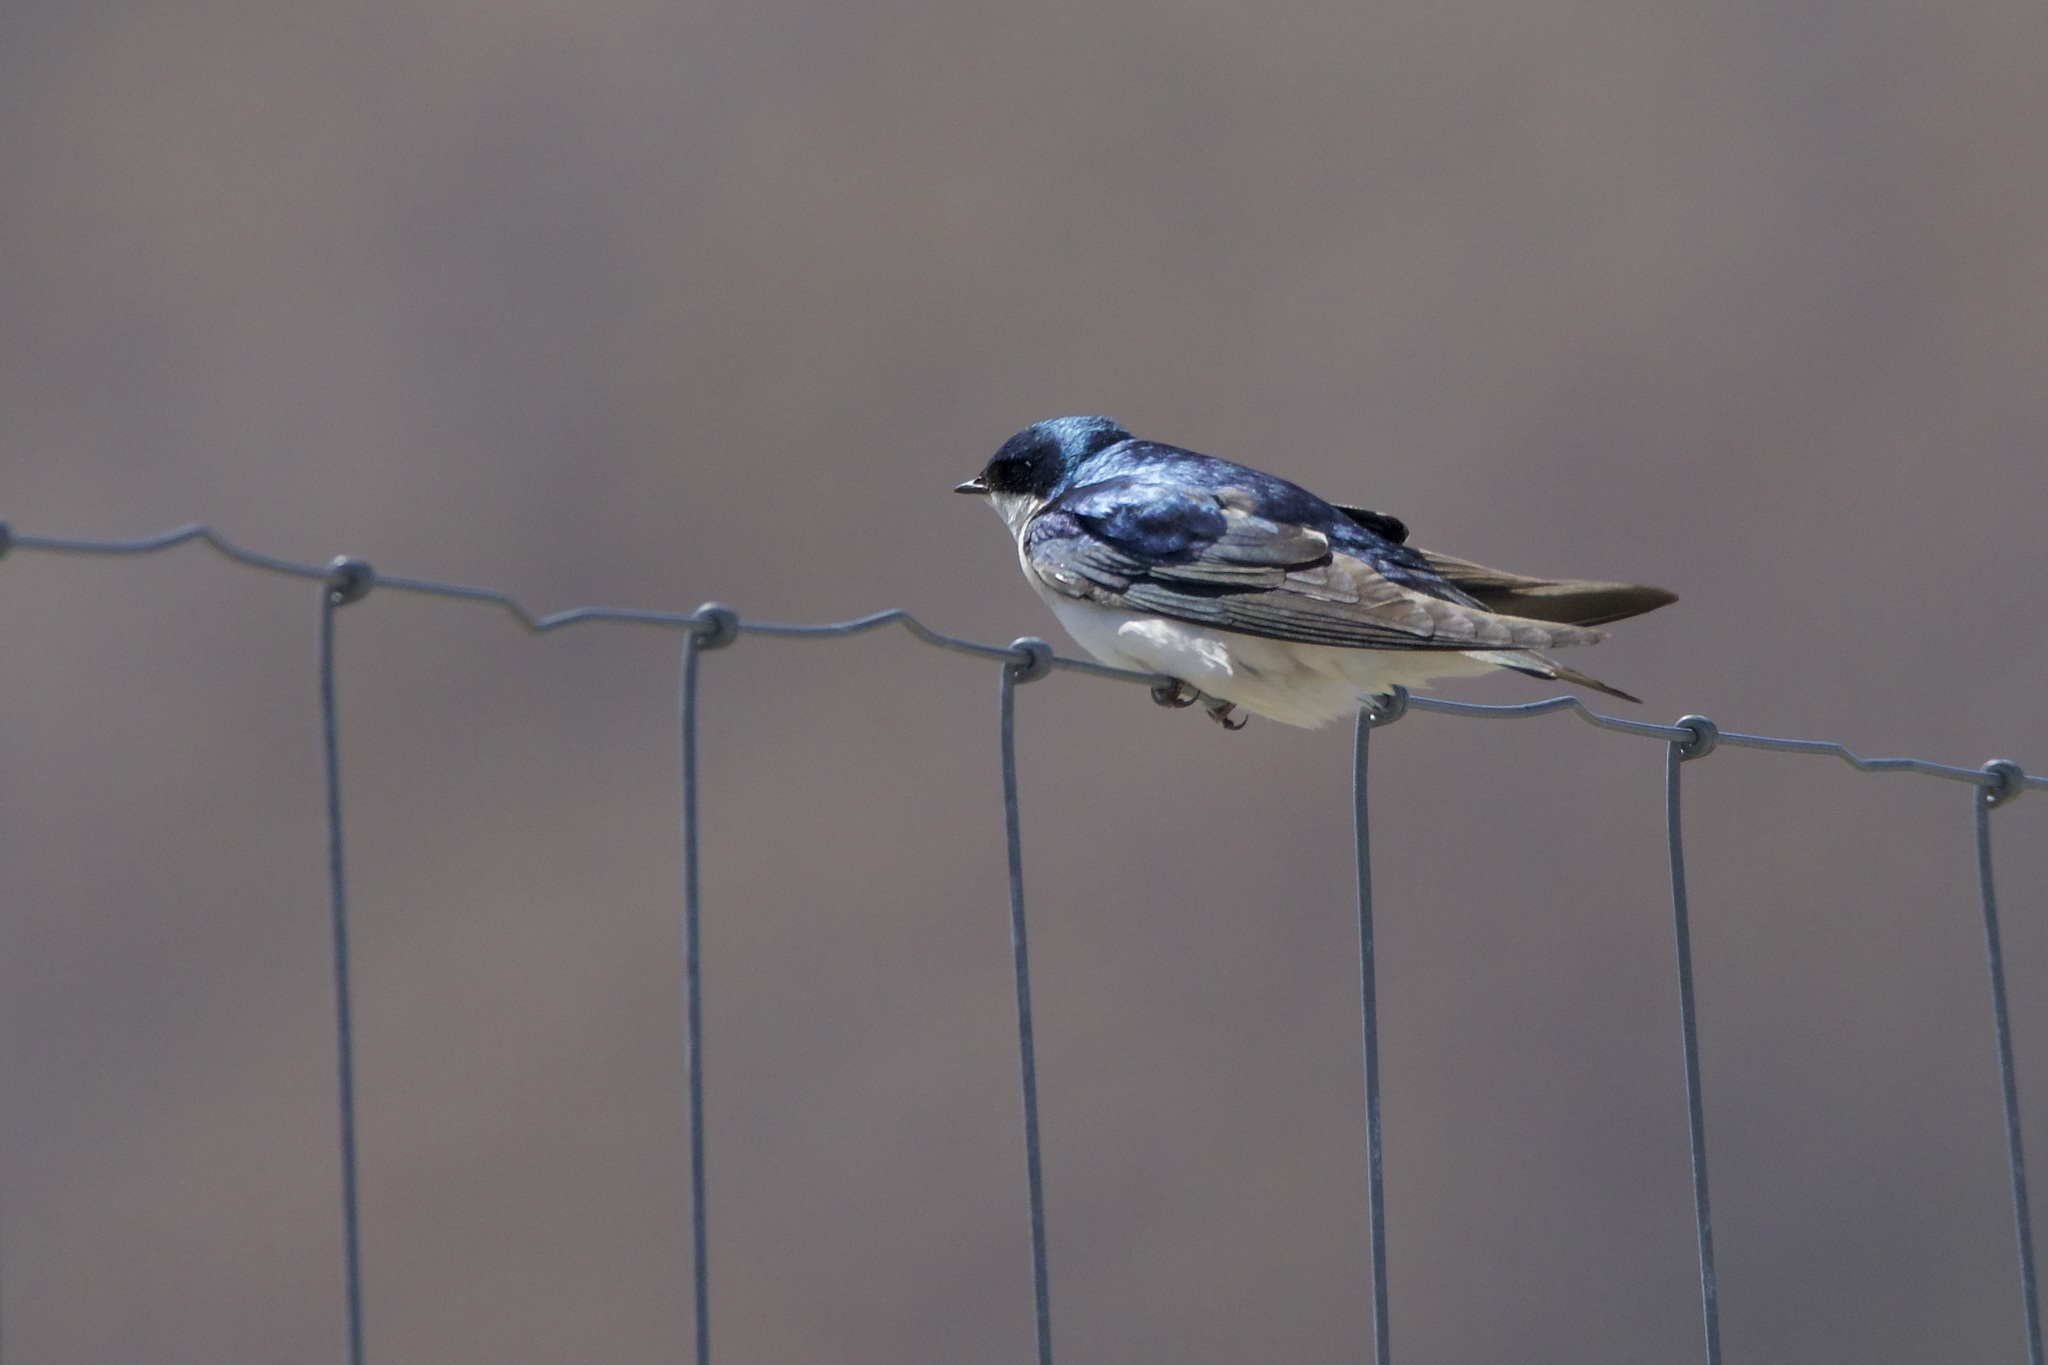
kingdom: Animalia
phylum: Chordata
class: Aves
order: Passeriformes
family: Hirundinidae
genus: Tachycineta
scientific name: Tachycineta bicolor
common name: Tree swallow
